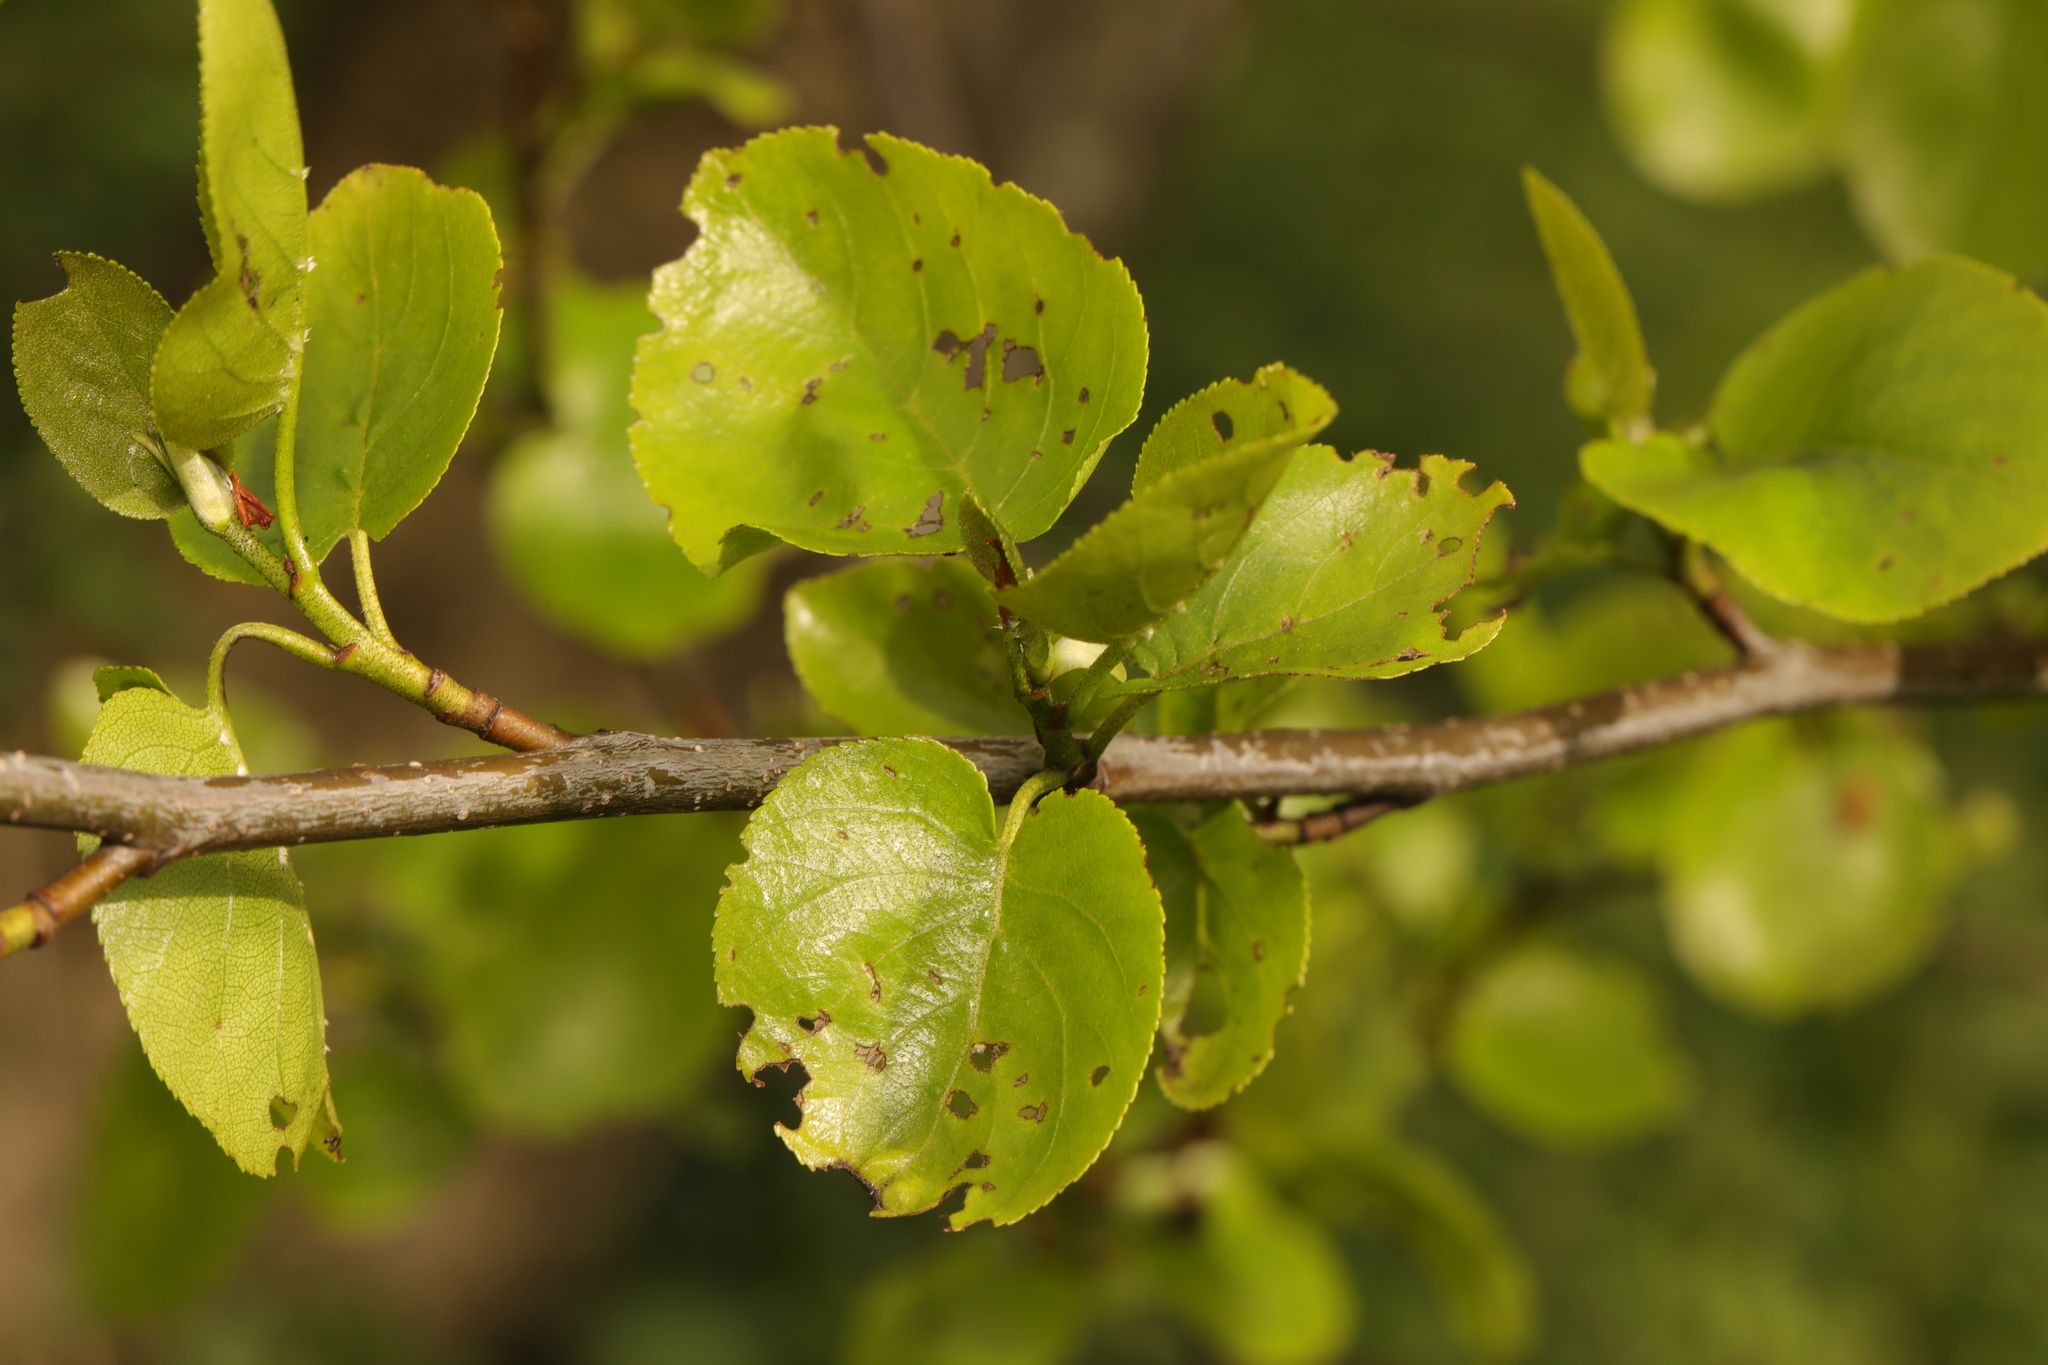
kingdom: Plantae
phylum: Tracheophyta
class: Magnoliopsida
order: Fagales
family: Betulaceae
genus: Alnus
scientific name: Alnus cordata
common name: Italian alder
